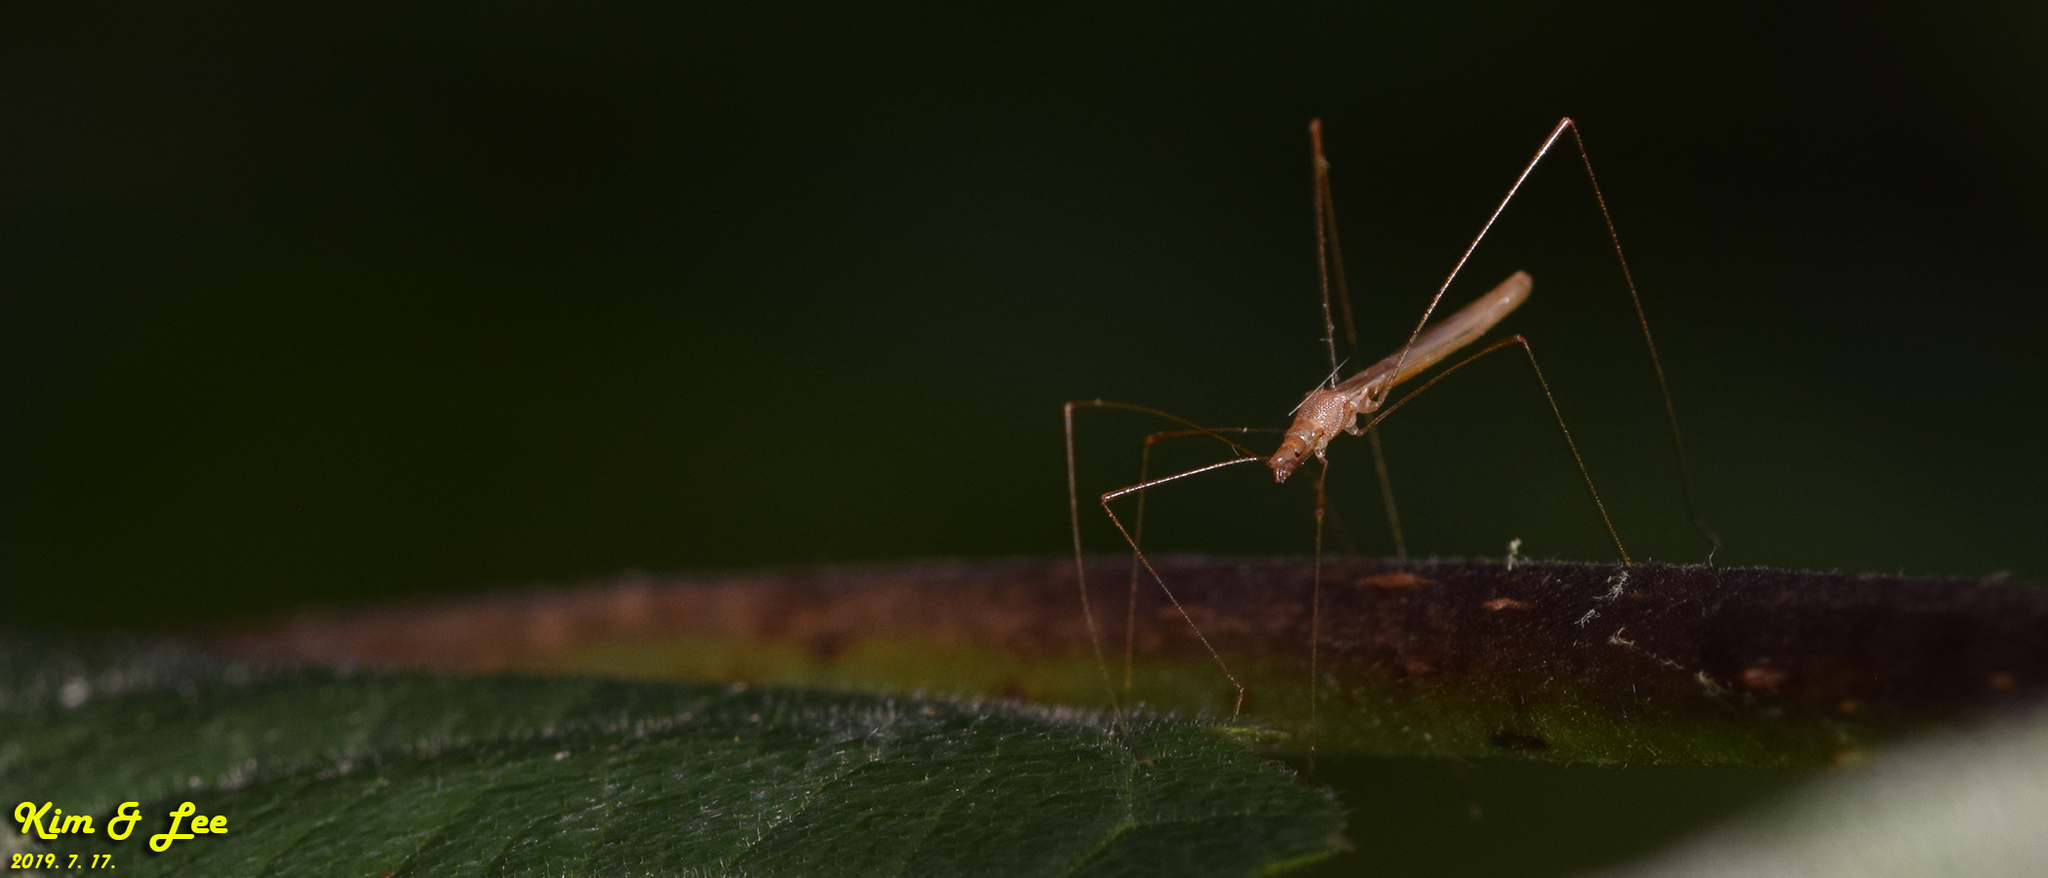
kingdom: Animalia
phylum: Arthropoda
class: Insecta
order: Hemiptera
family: Berytidae
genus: Yemma
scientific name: Yemma exilis
